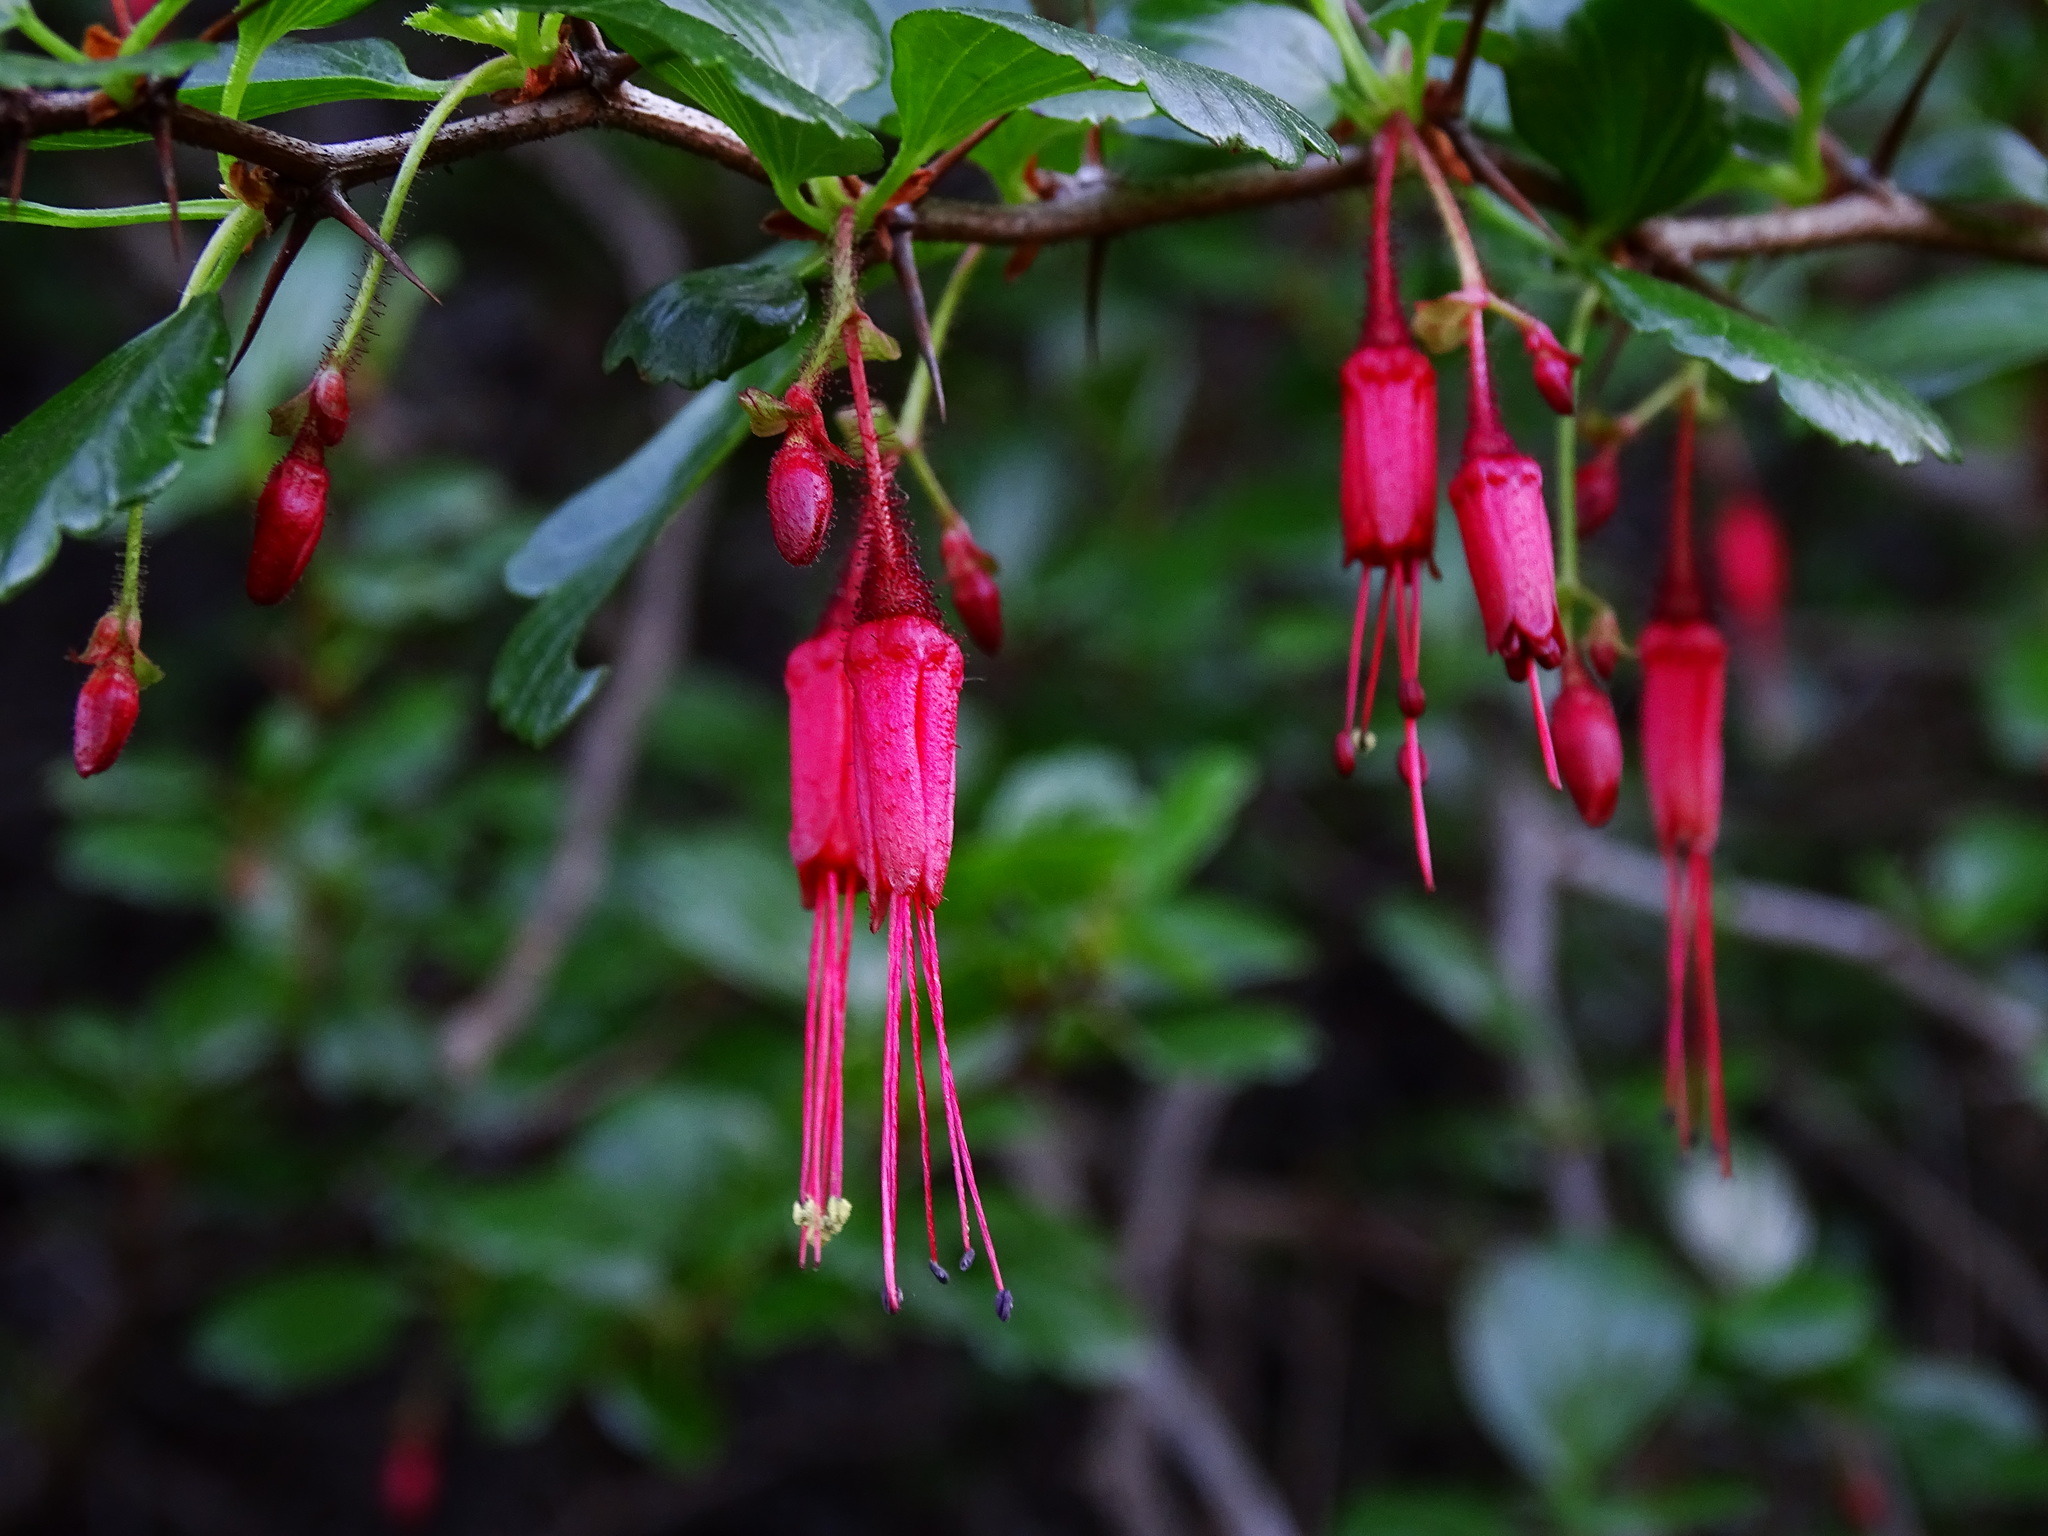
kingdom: Plantae
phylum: Tracheophyta
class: Magnoliopsida
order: Saxifragales
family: Grossulariaceae
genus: Ribes
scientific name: Ribes speciosum
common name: Fuchsia-flower gooseberry
